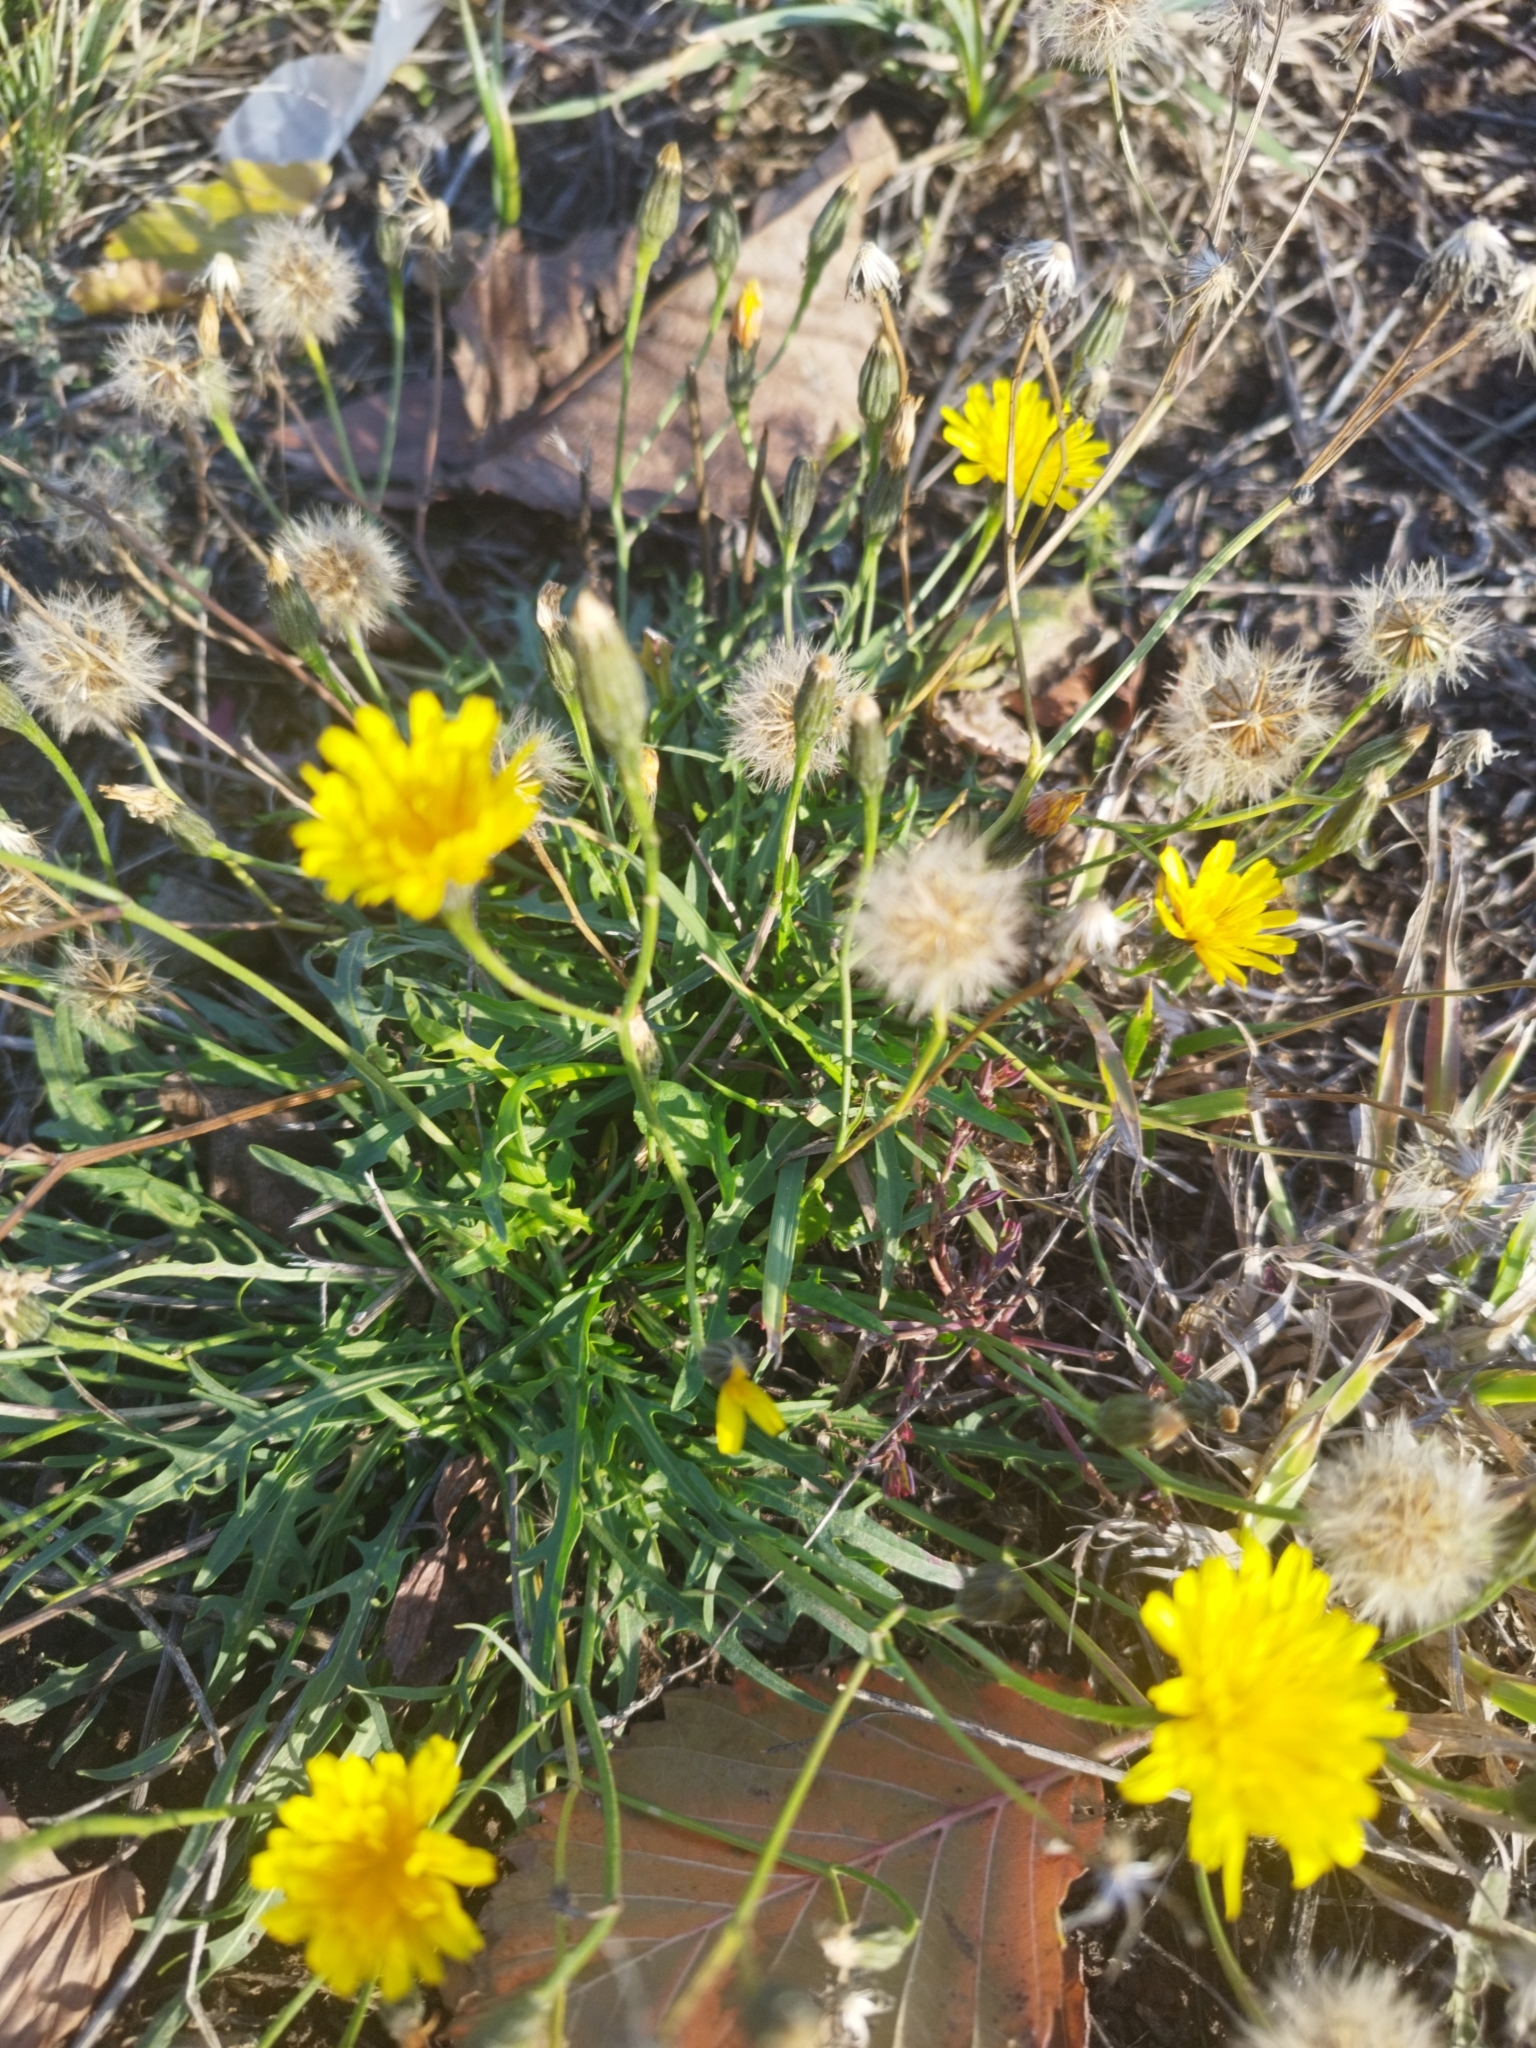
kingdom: Plantae
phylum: Tracheophyta
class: Magnoliopsida
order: Asterales
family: Asteraceae
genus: Scorzoneroides
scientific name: Scorzoneroides autumnalis
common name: Autumn hawkbit
